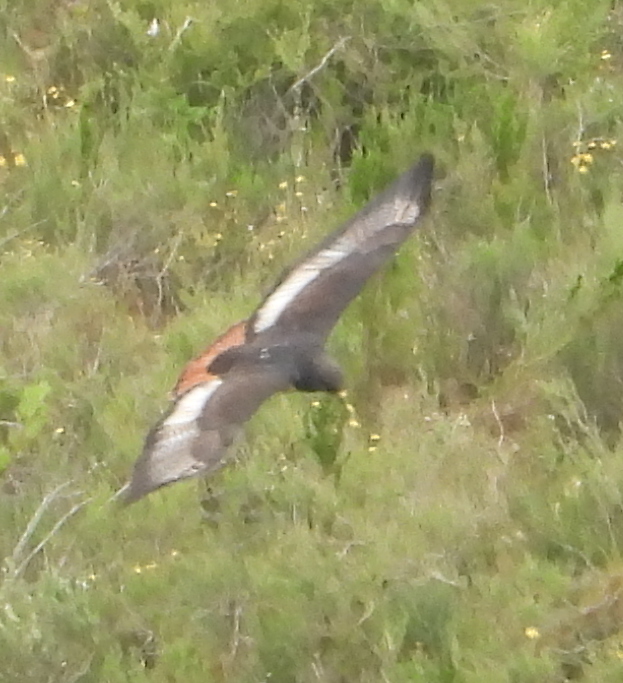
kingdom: Animalia
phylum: Chordata
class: Aves
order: Accipitriformes
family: Accipitridae
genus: Buteo
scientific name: Buteo rufofuscus
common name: Jackal buzzard
